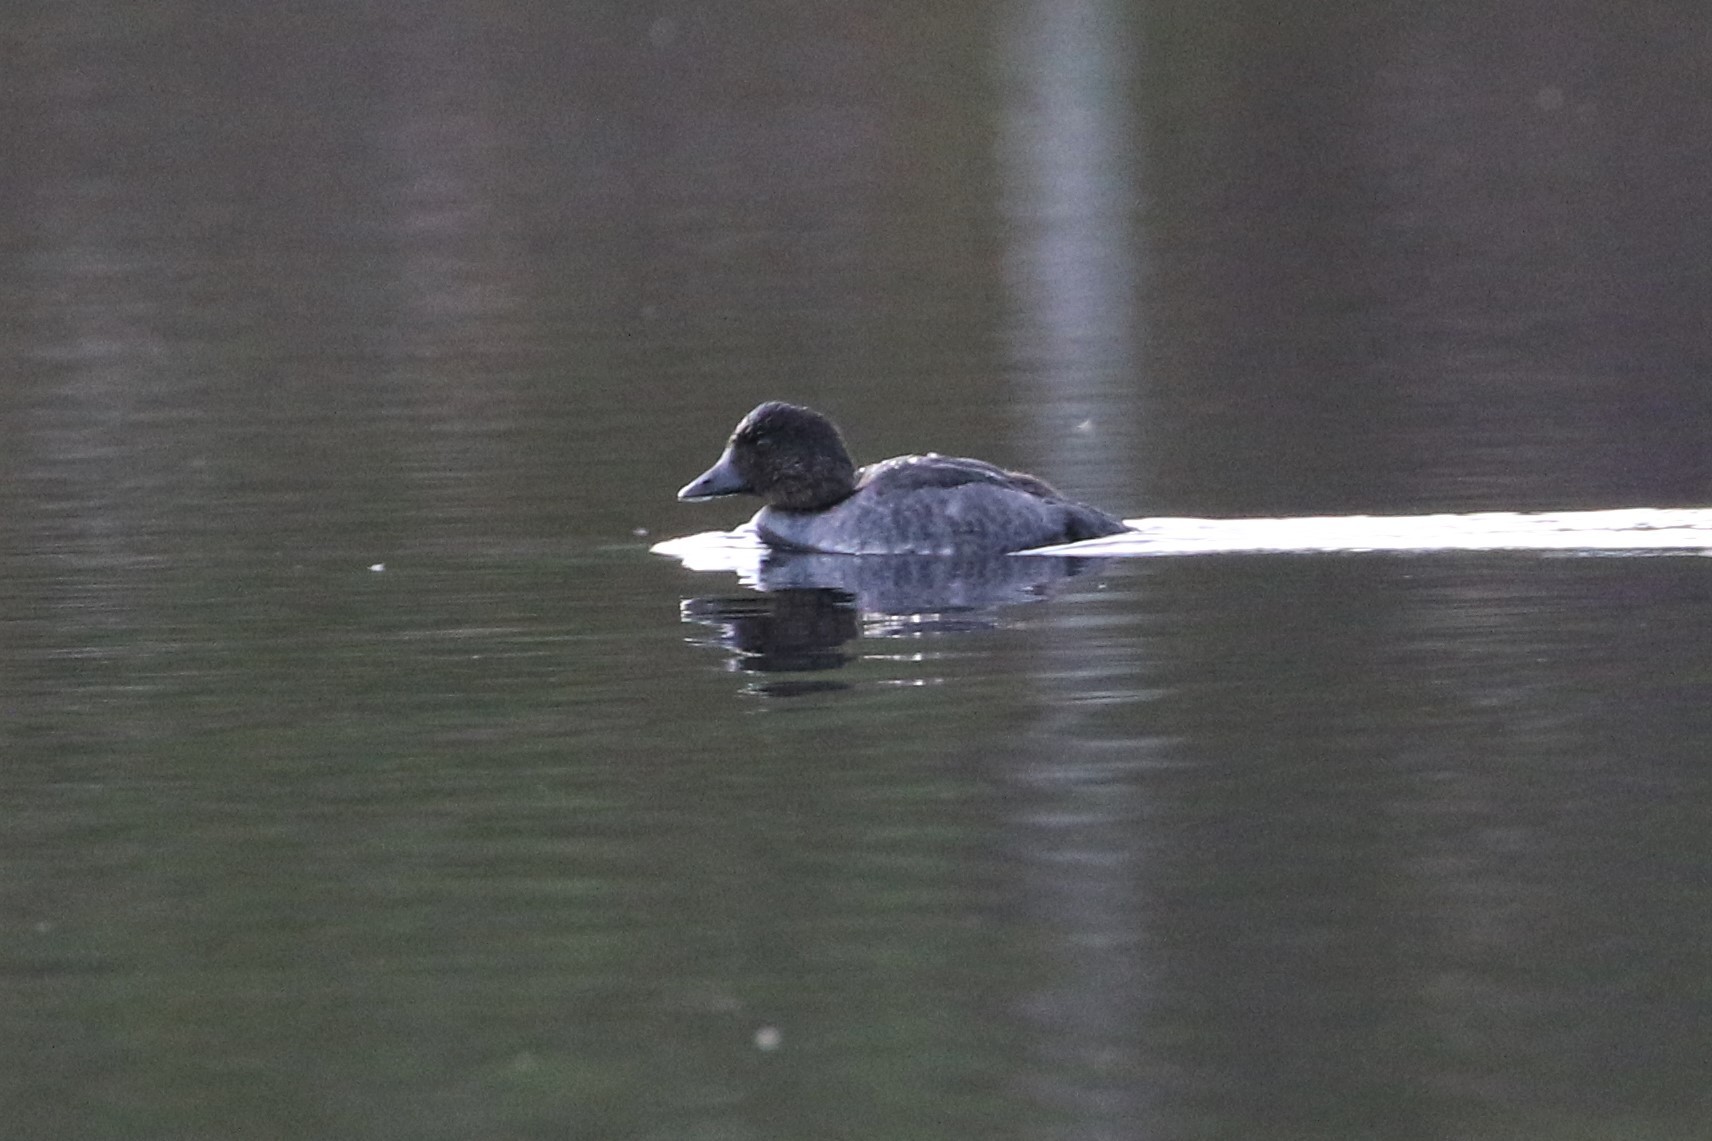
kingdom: Animalia
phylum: Chordata
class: Aves
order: Anseriformes
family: Anatidae
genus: Bucephala
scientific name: Bucephala clangula
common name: Common goldeneye
